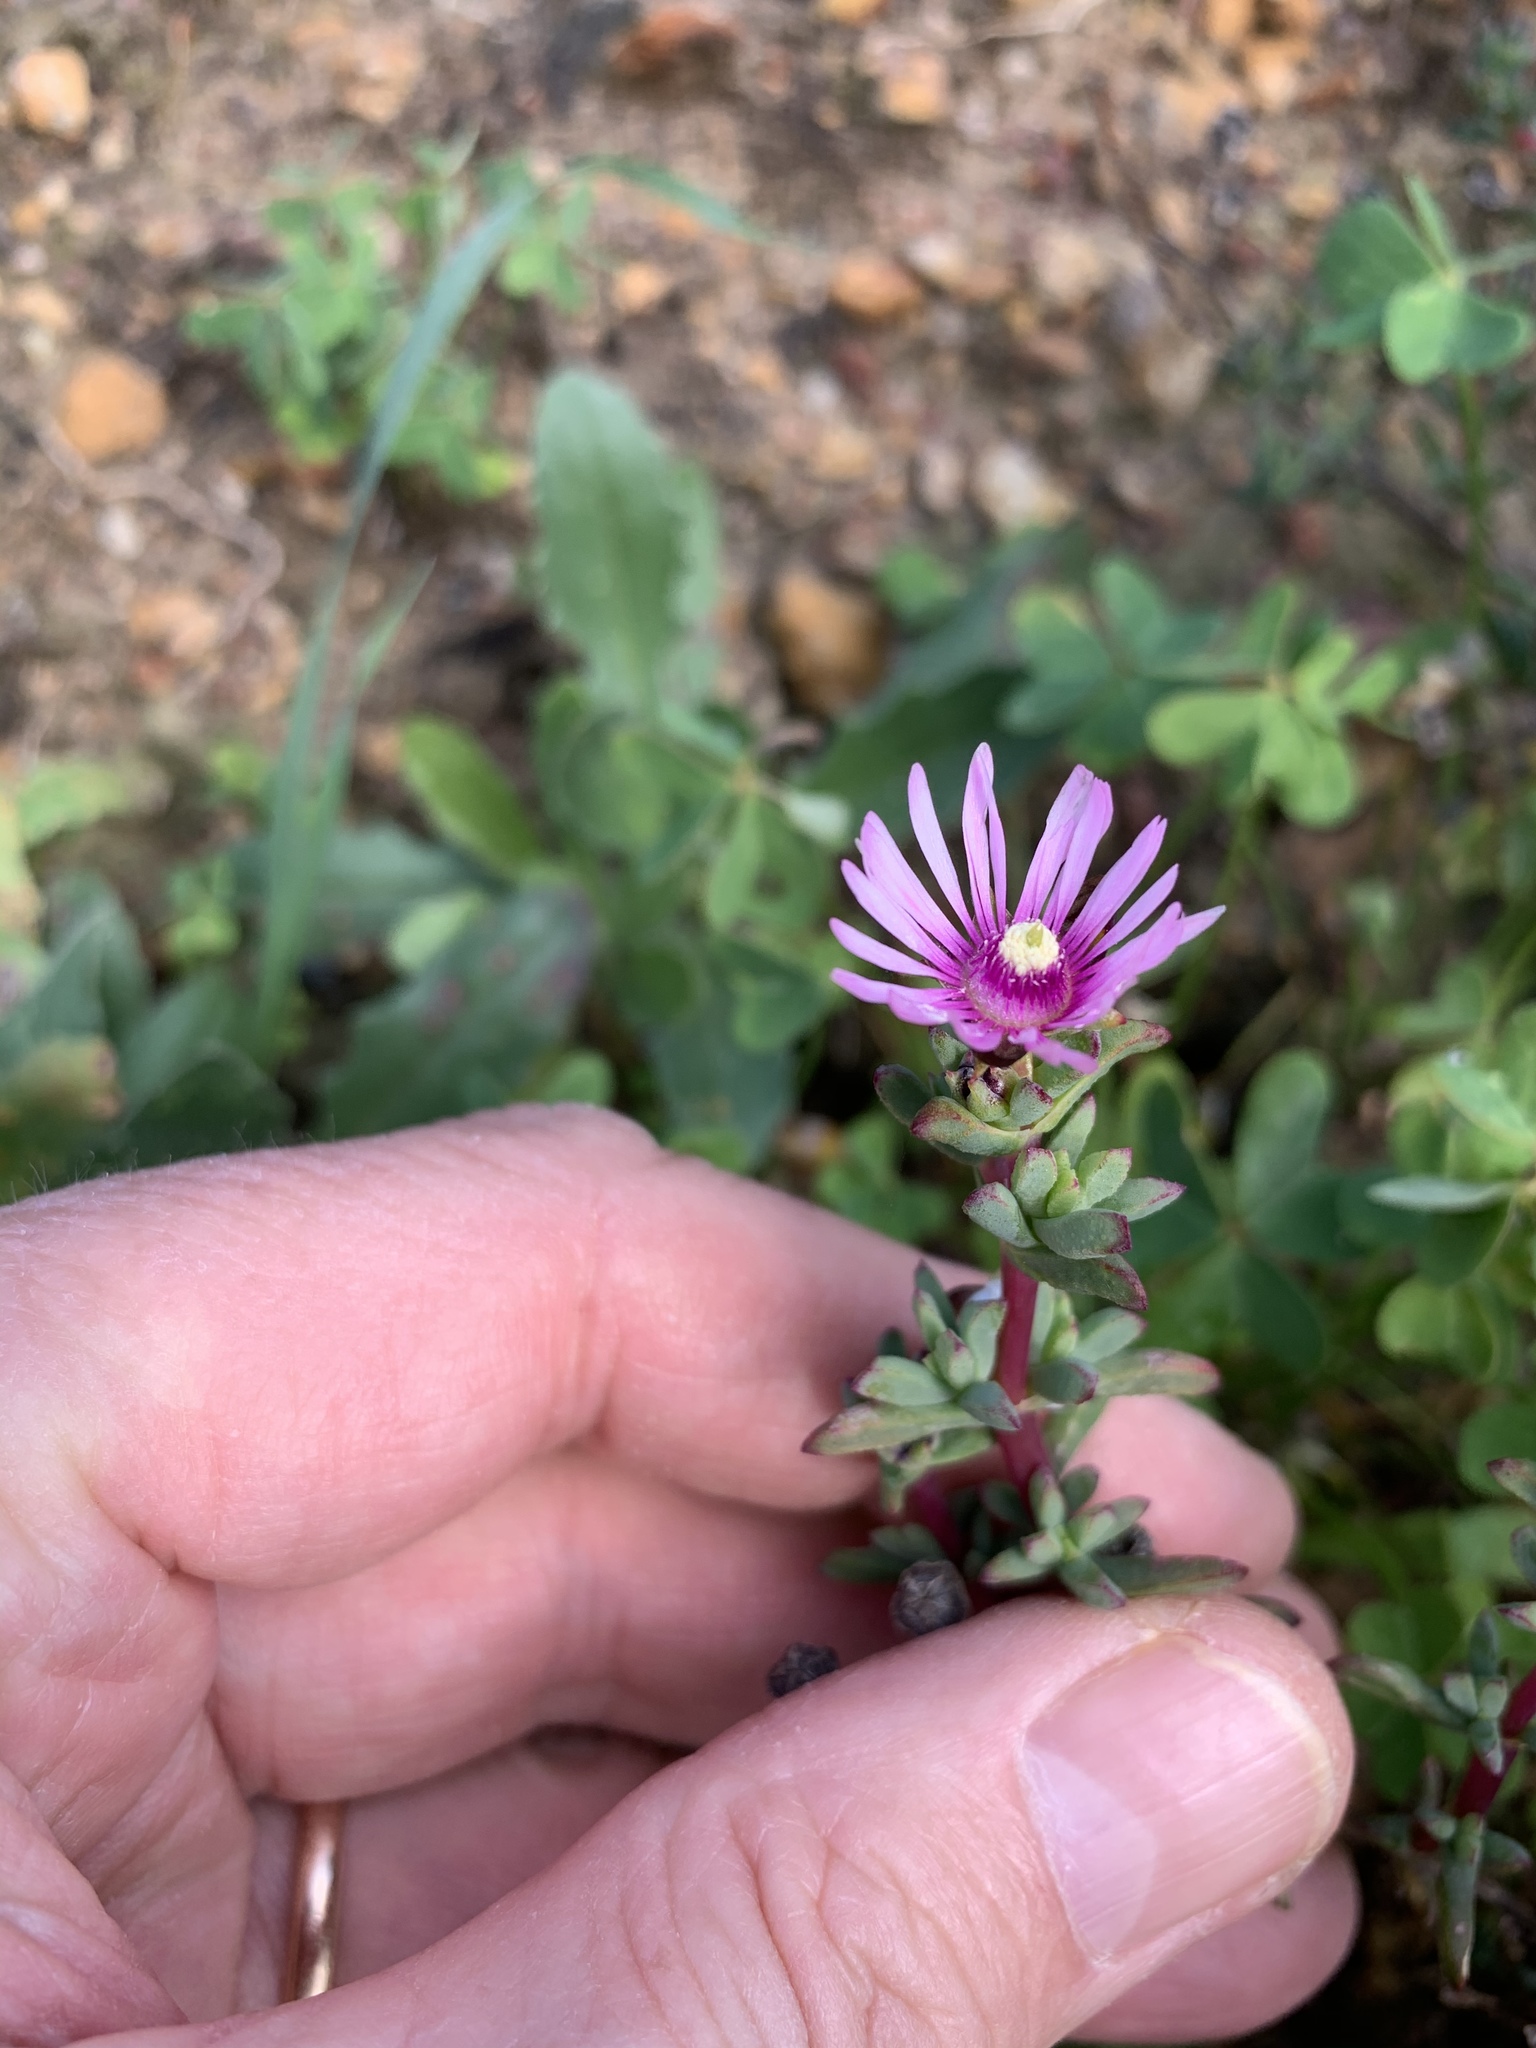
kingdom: Plantae
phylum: Tracheophyta
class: Magnoliopsida
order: Caryophyllales
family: Aizoaceae
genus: Lampranthus
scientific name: Lampranthus leptaleon
